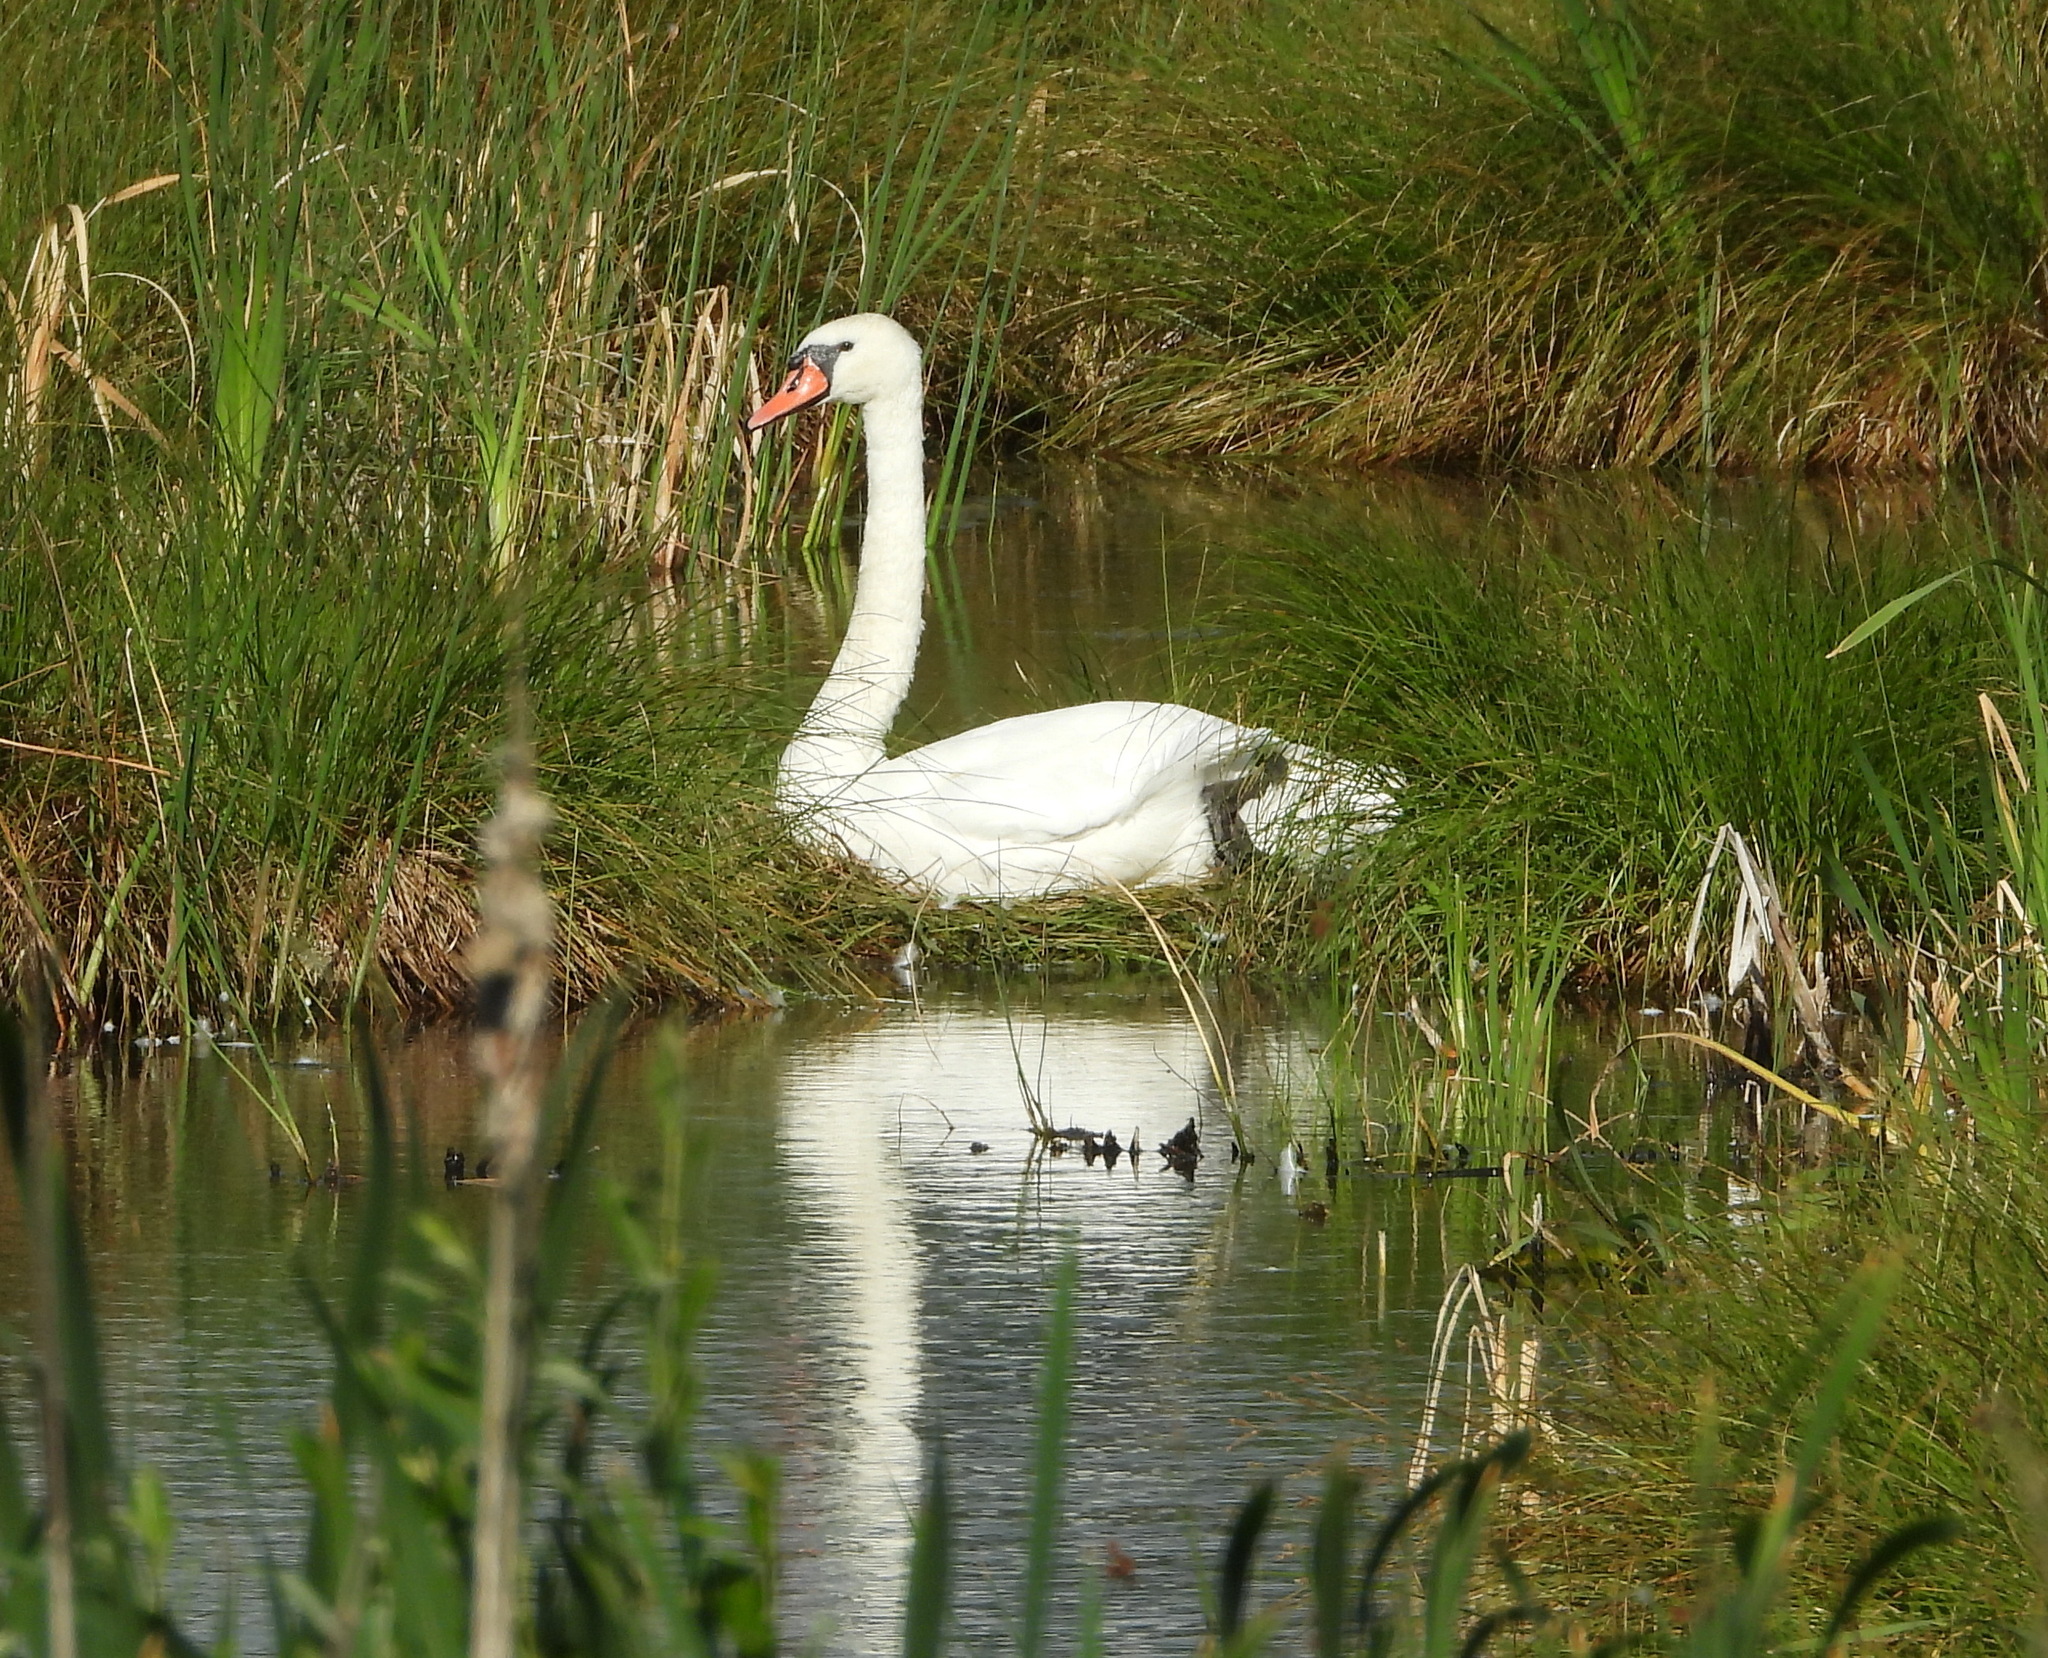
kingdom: Animalia
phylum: Chordata
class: Aves
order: Anseriformes
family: Anatidae
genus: Cygnus
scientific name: Cygnus olor
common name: Mute swan
